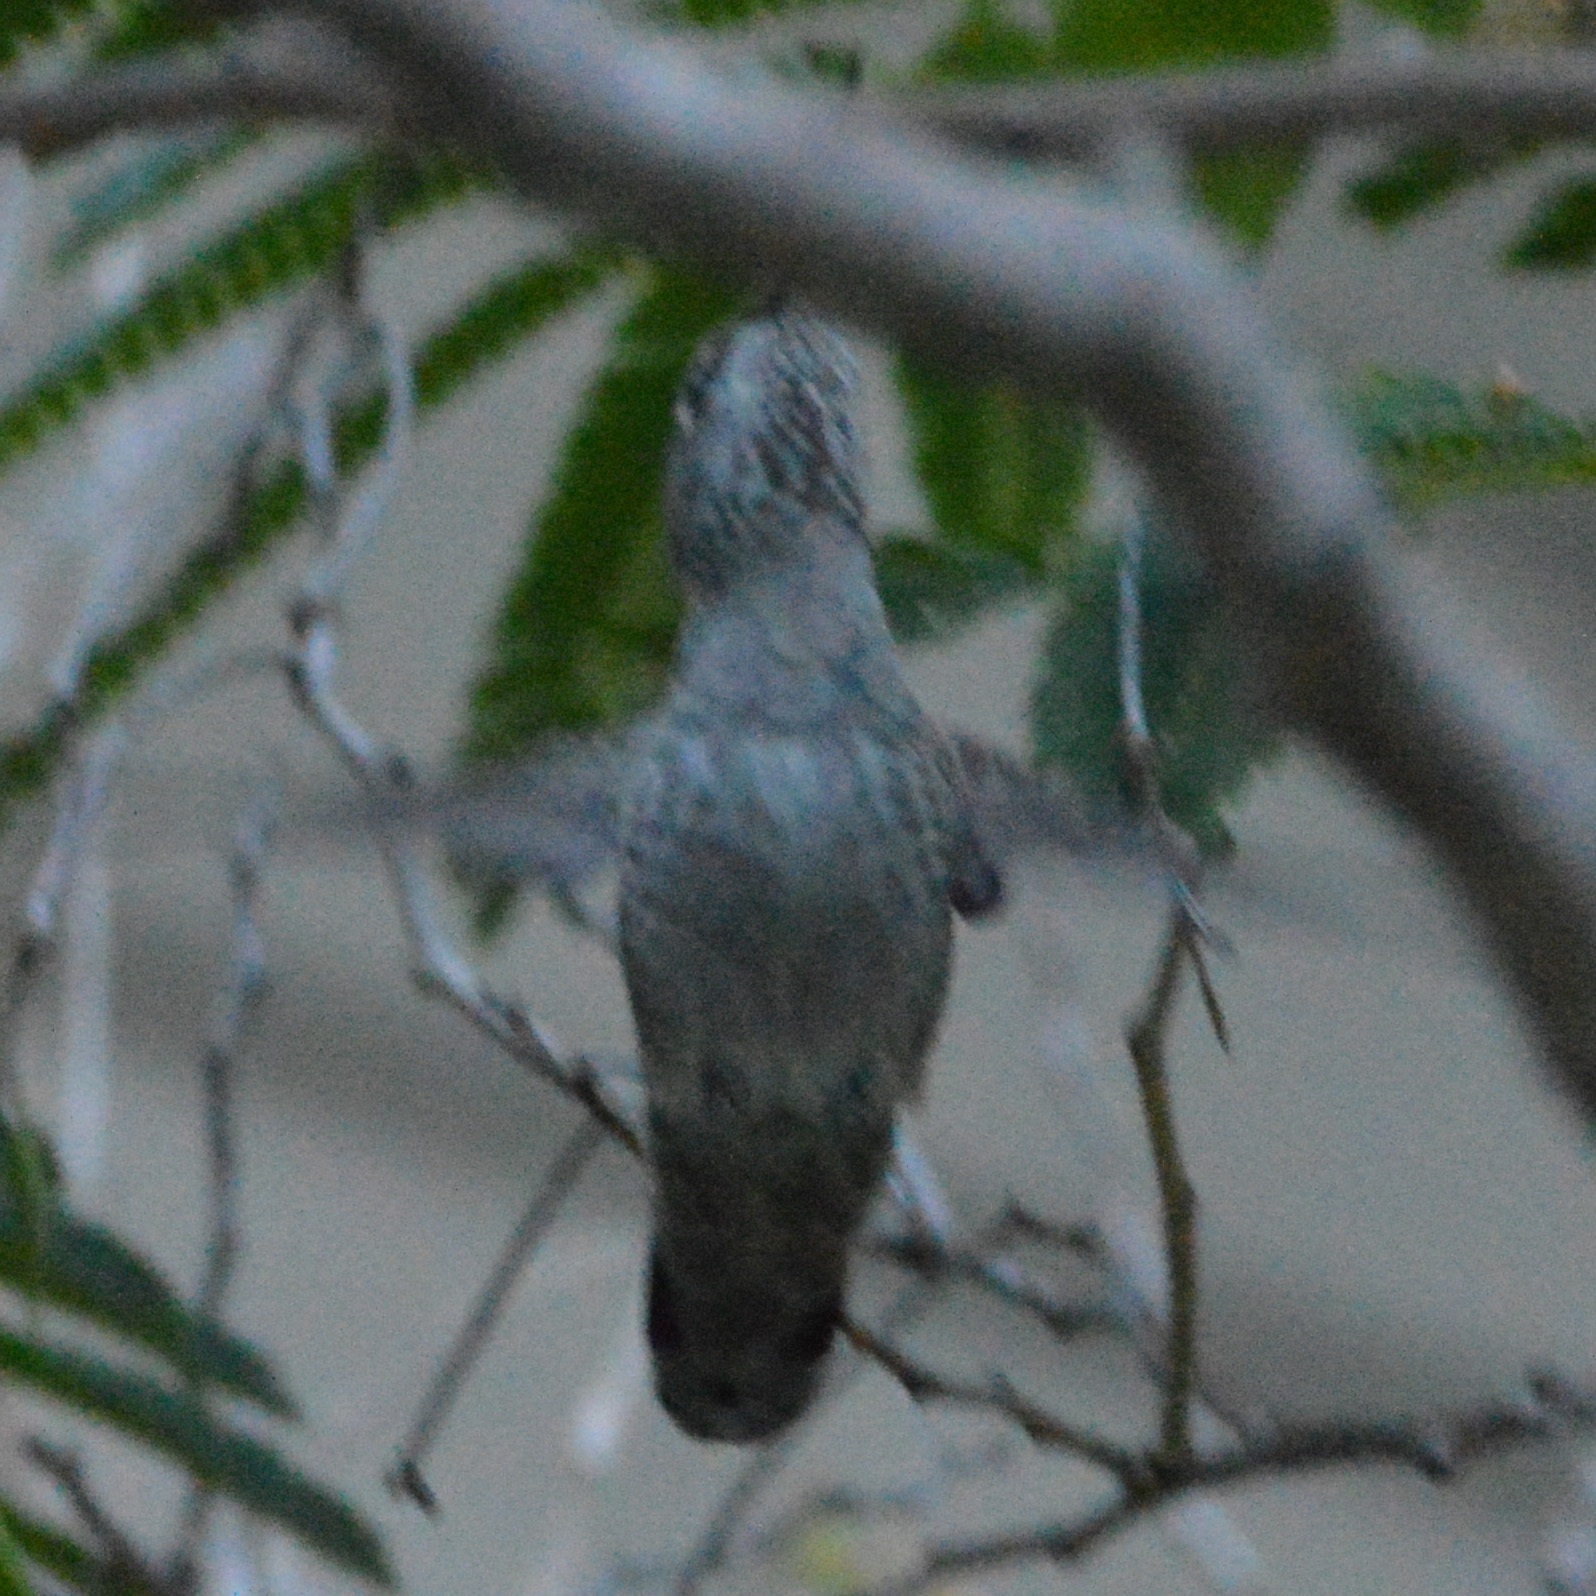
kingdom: Animalia
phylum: Chordata
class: Aves
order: Apodiformes
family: Trochilidae
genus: Calypte
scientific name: Calypte anna
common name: Anna's hummingbird
